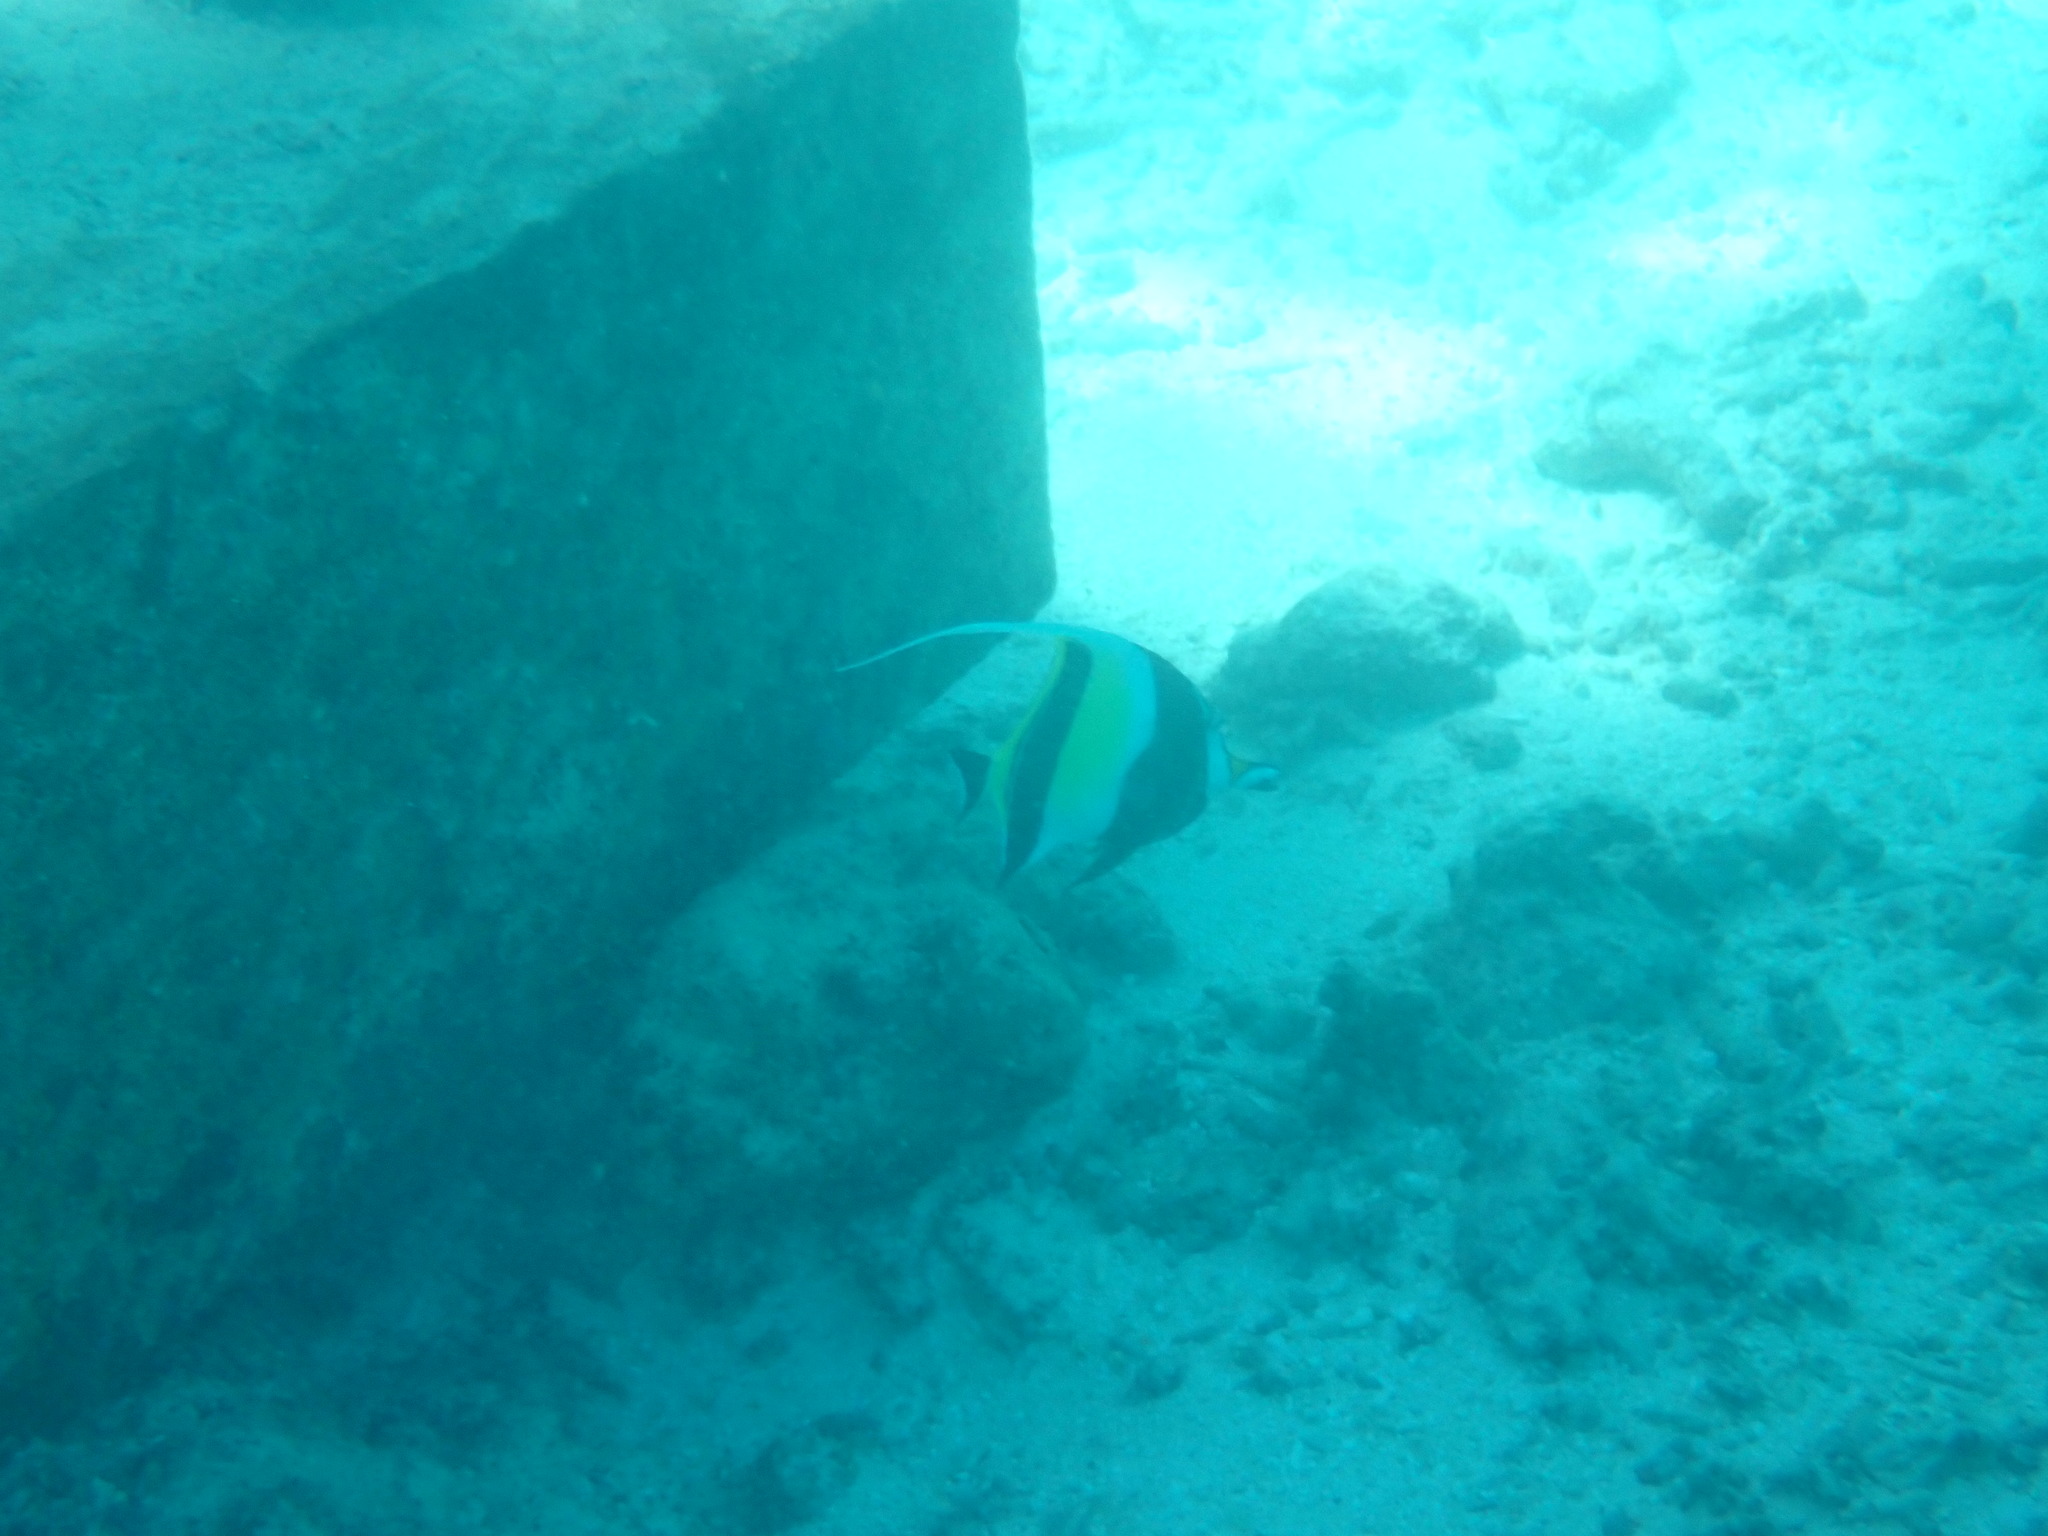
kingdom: Animalia
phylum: Chordata
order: Perciformes
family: Zanclidae
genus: Zanclus
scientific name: Zanclus cornutus
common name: Moorish idol
